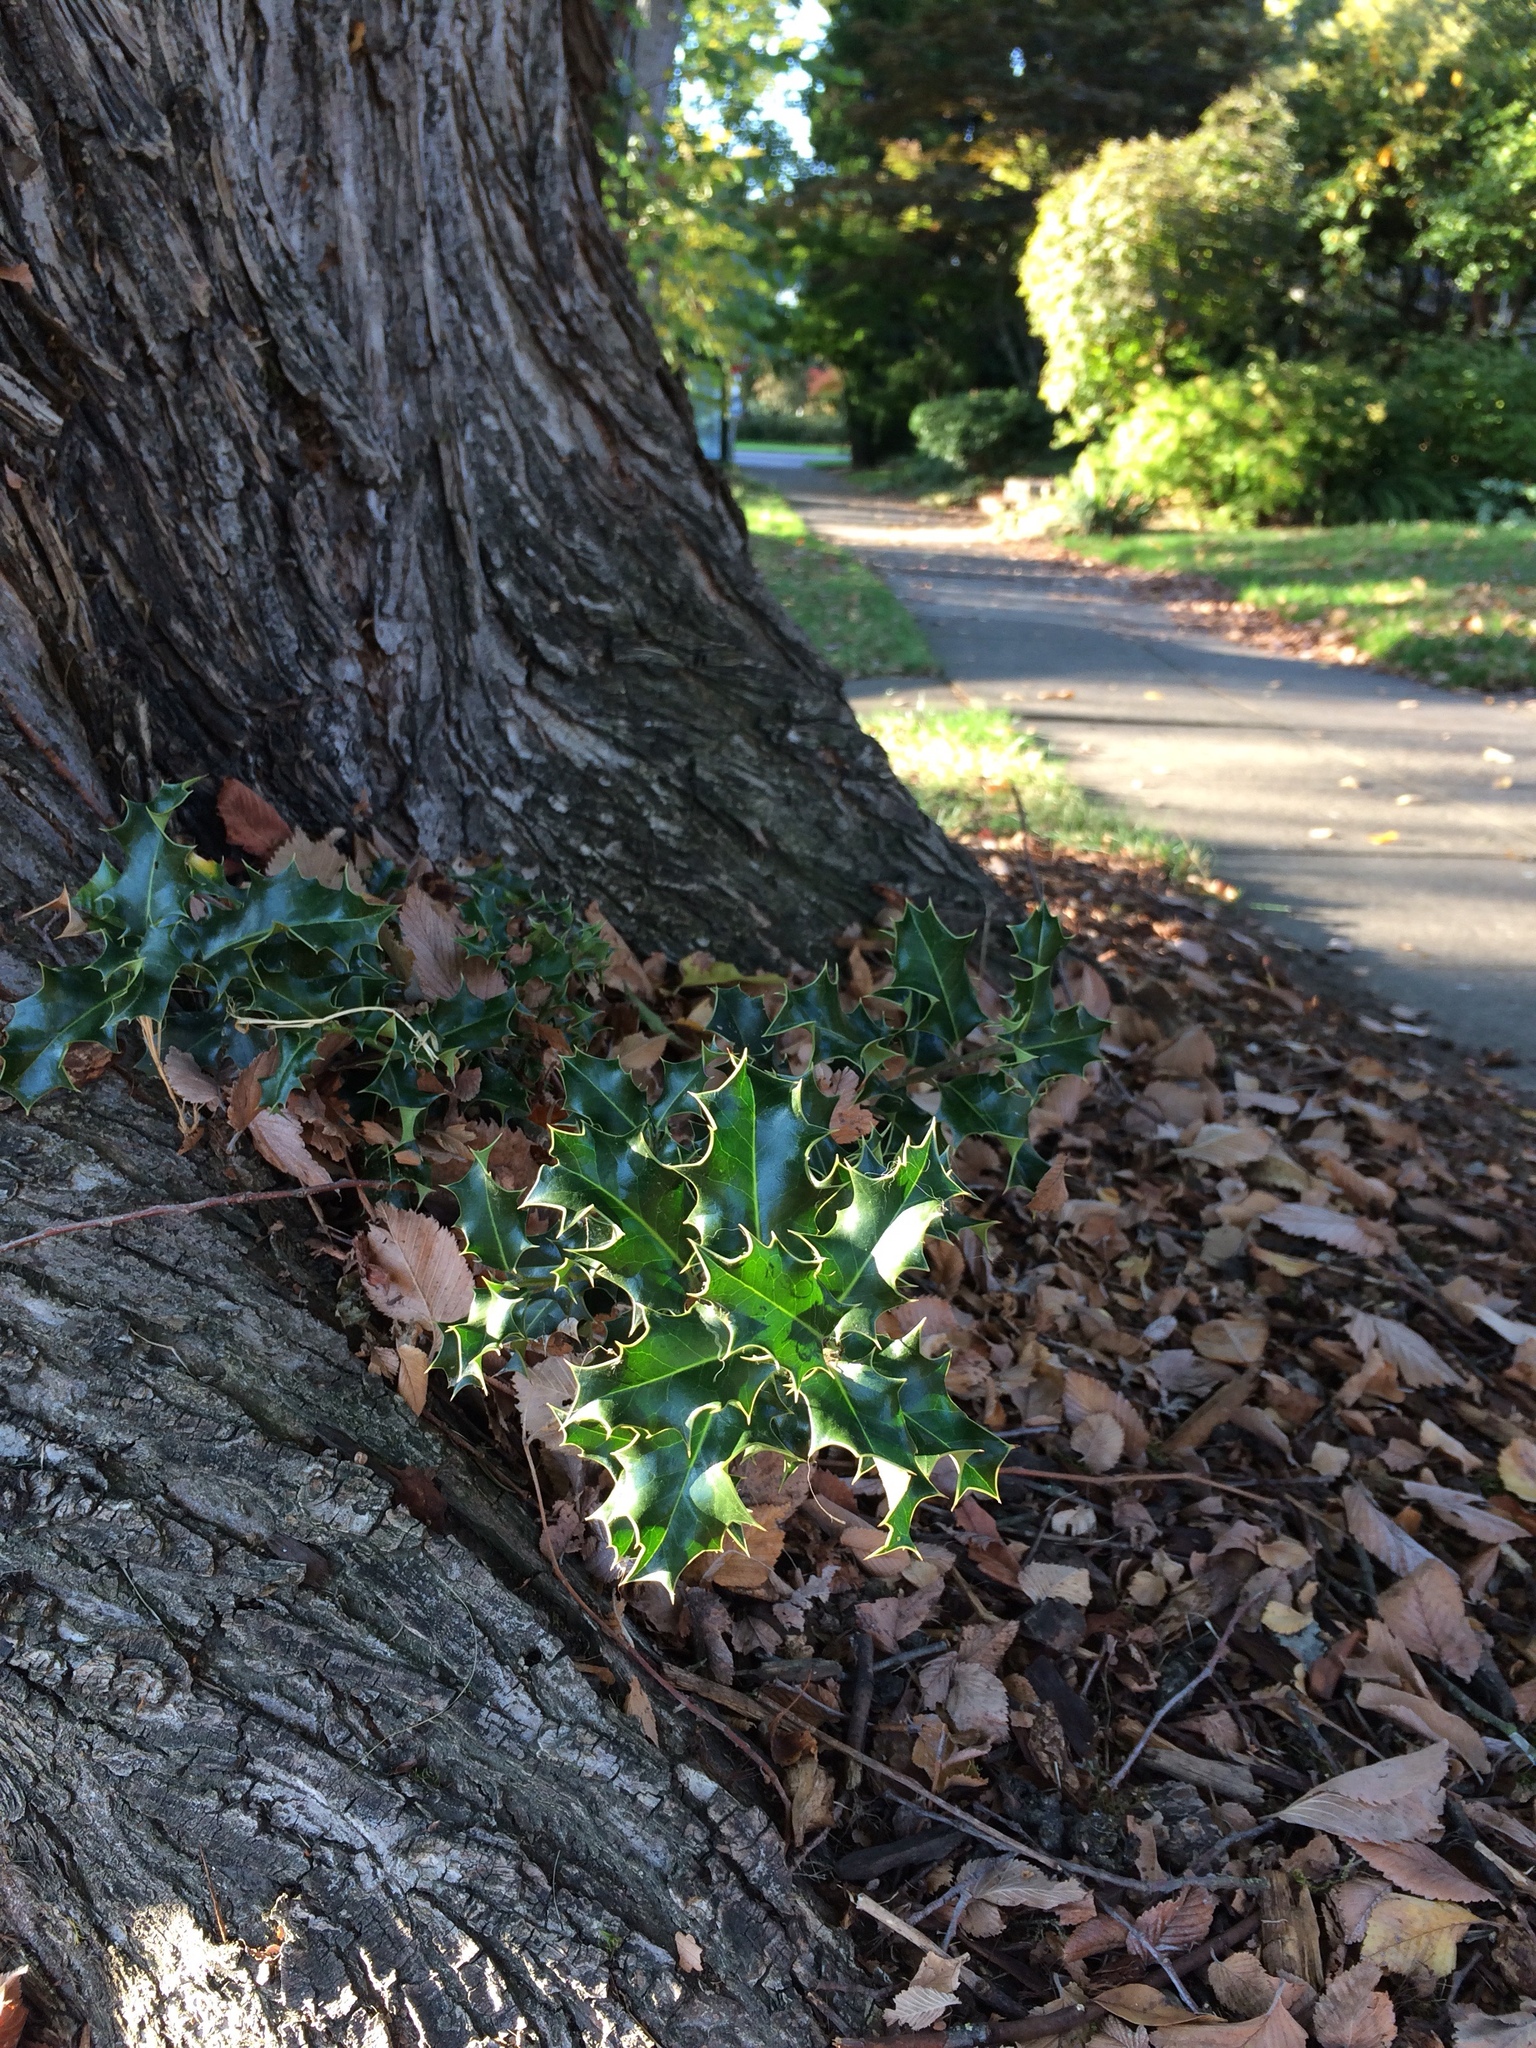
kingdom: Plantae
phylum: Tracheophyta
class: Magnoliopsida
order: Aquifoliales
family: Aquifoliaceae
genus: Ilex
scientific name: Ilex aquifolium
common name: English holly
